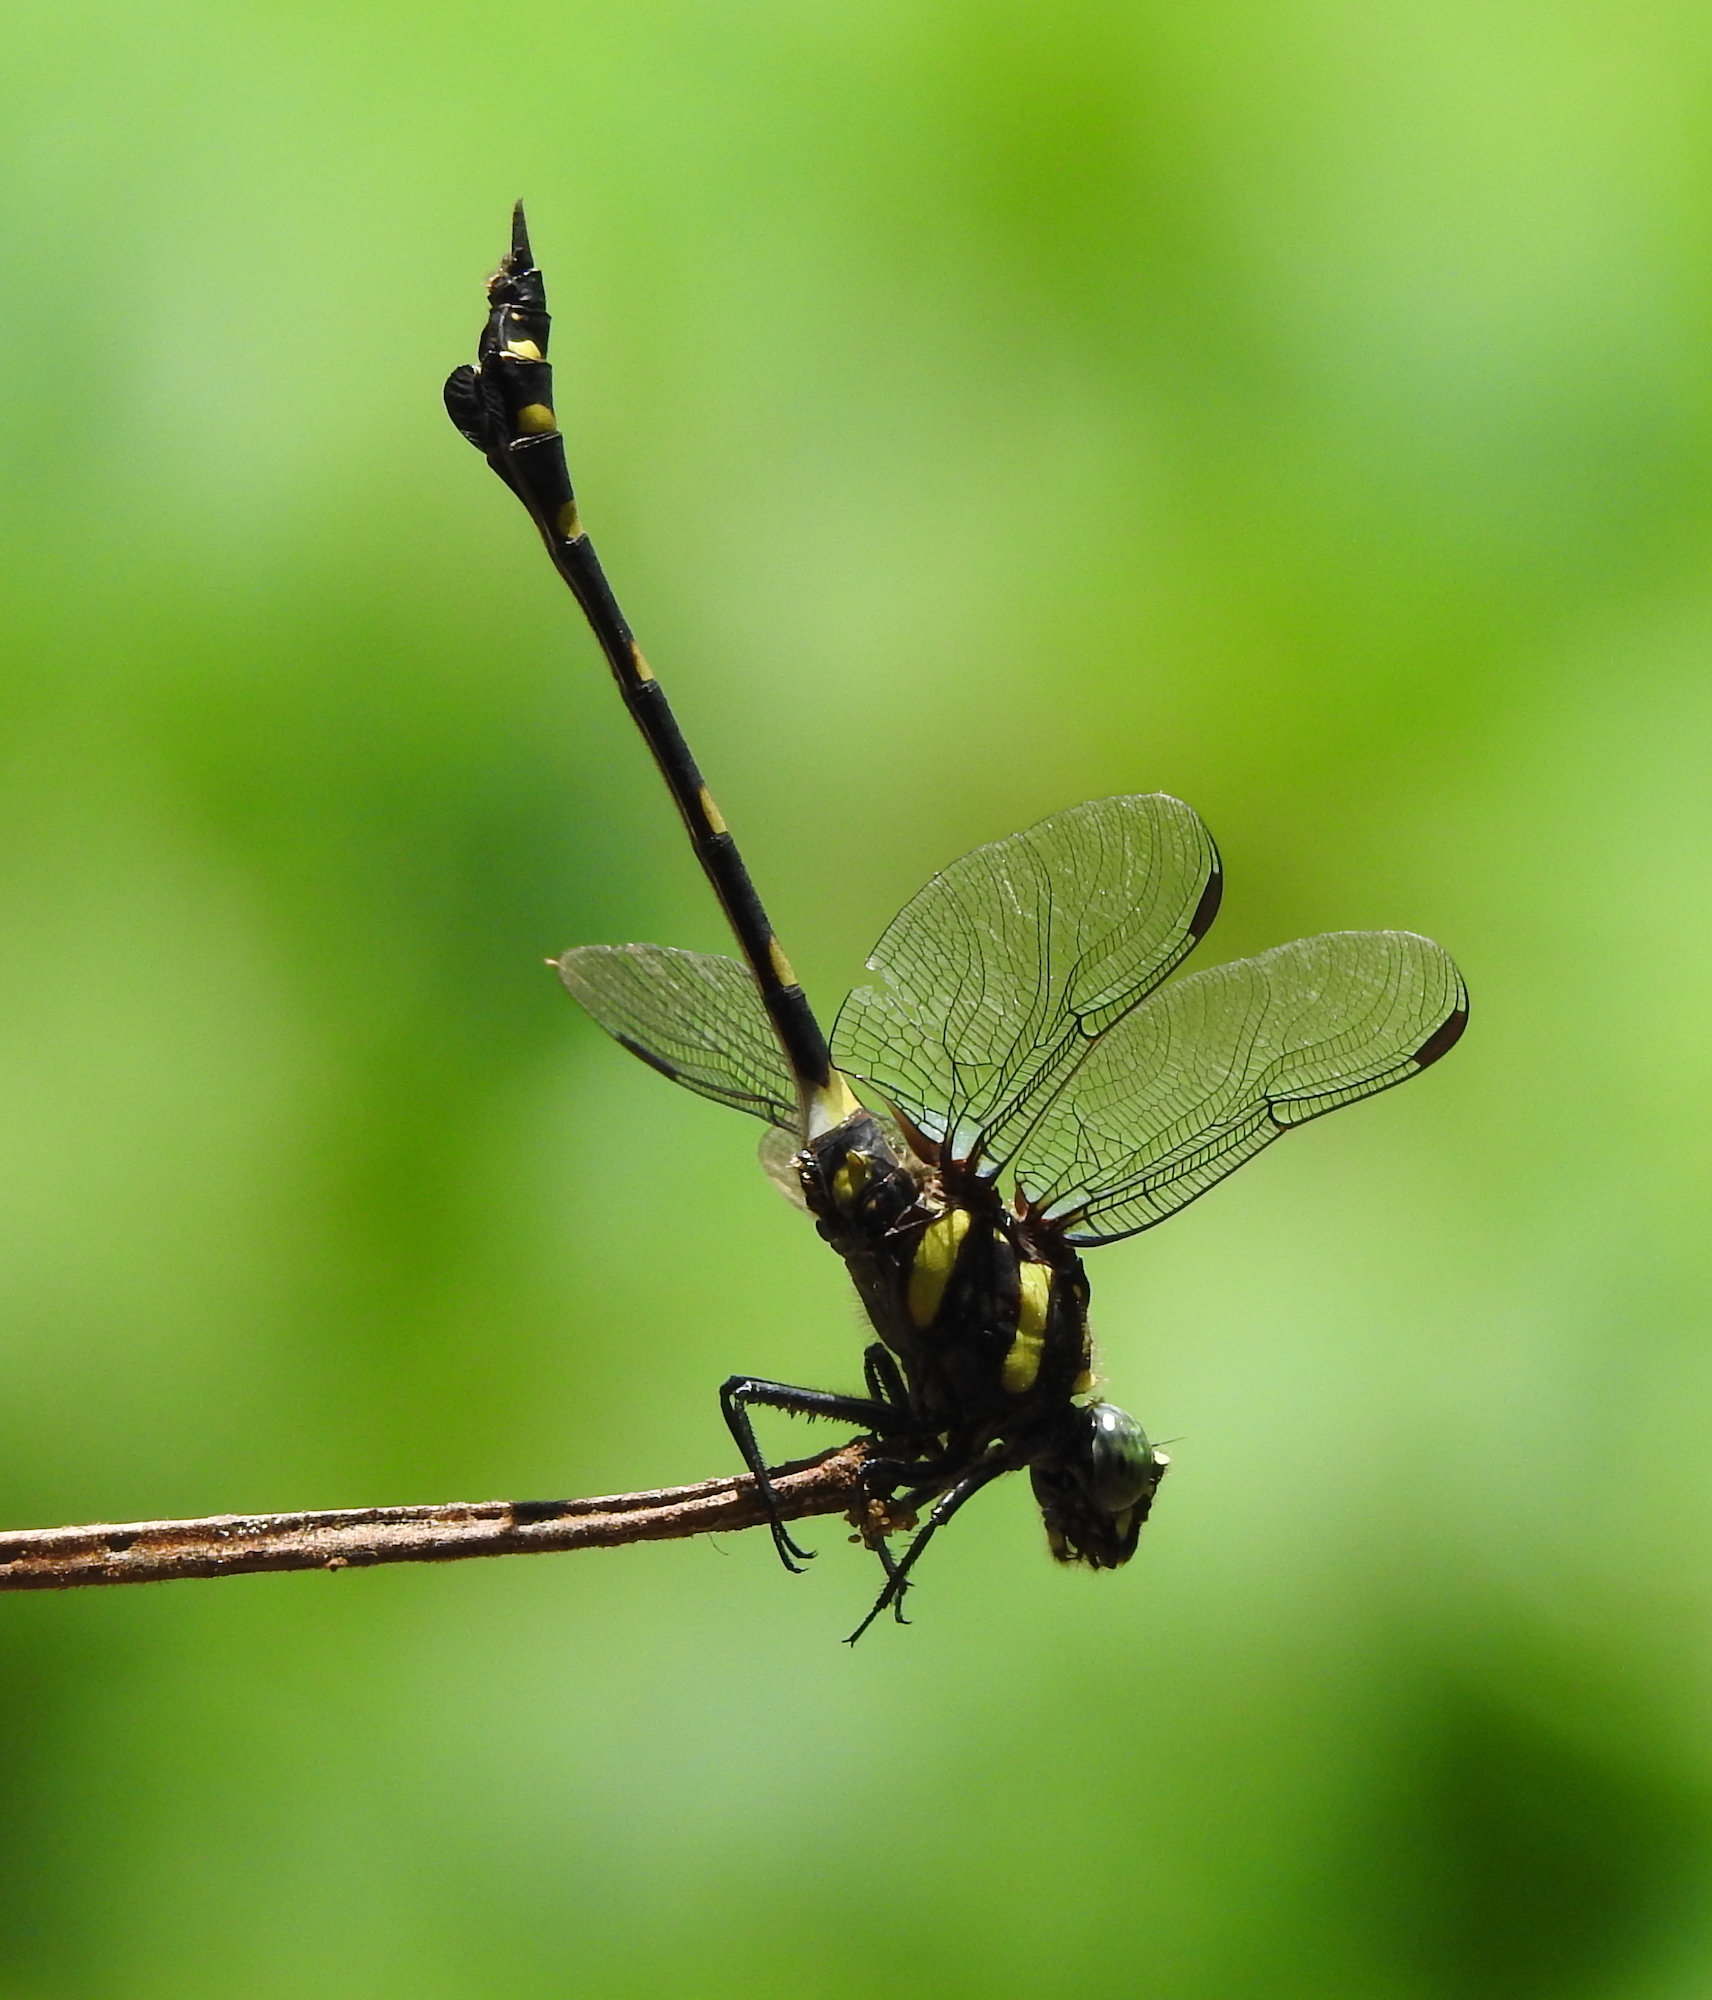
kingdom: Animalia
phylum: Arthropoda
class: Insecta
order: Odonata
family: Gomphidae
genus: Ictinogomphus
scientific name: Ictinogomphus decoratus
